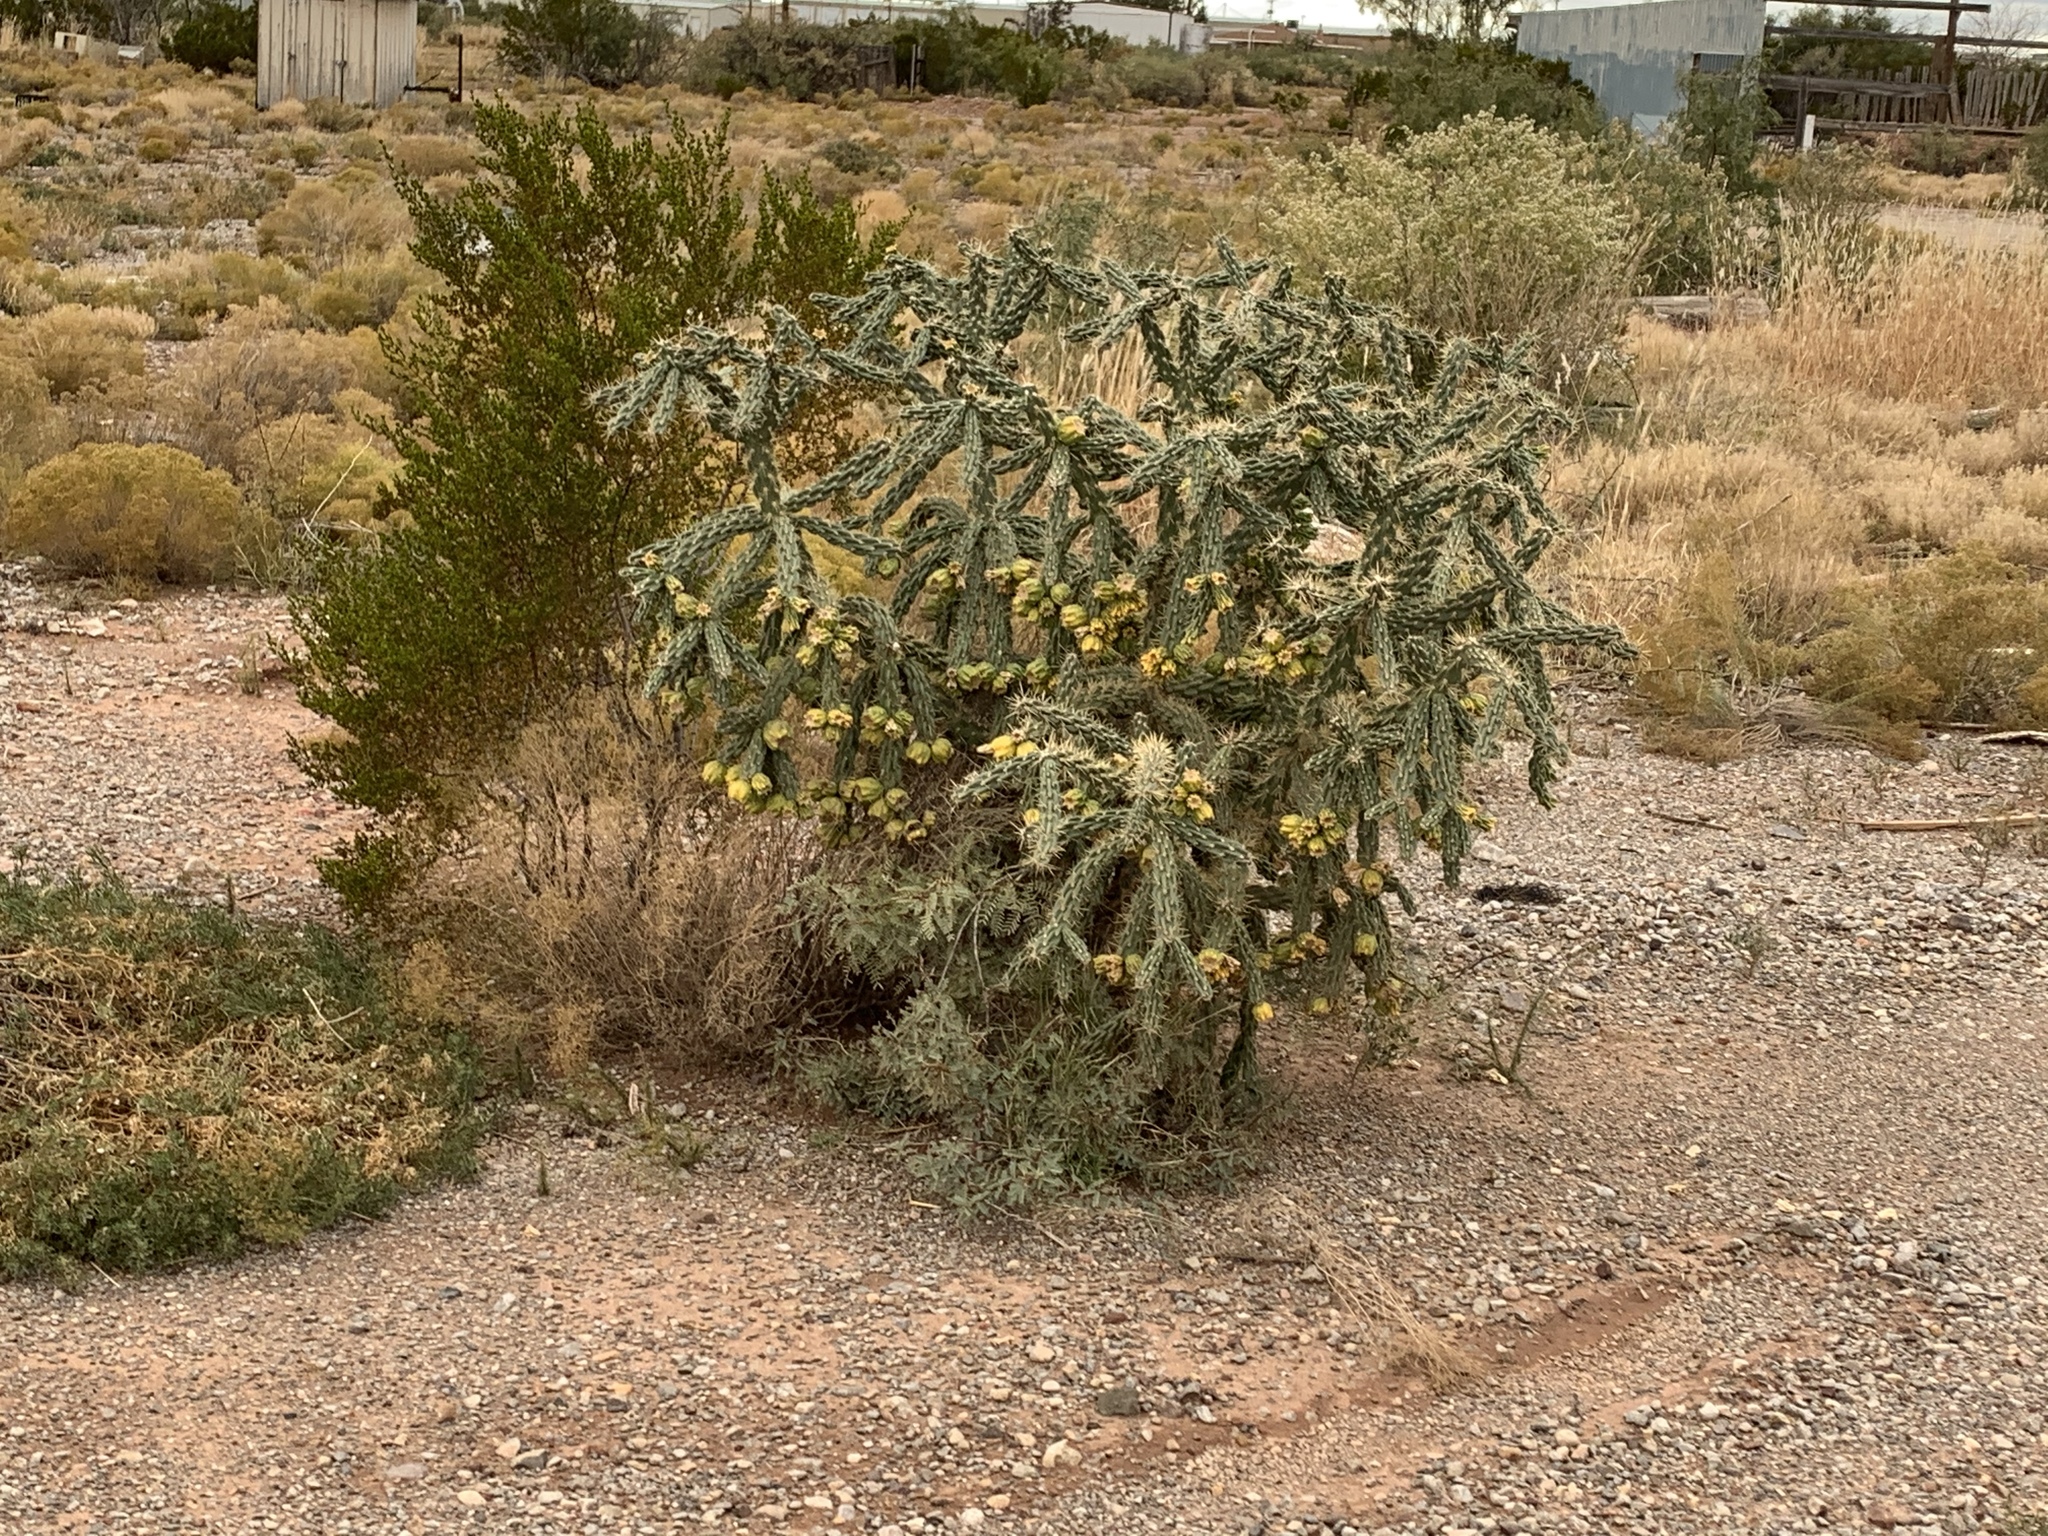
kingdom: Plantae
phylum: Tracheophyta
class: Magnoliopsida
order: Caryophyllales
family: Cactaceae
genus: Cylindropuntia
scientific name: Cylindropuntia imbricata
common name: Candelabrum cactus
